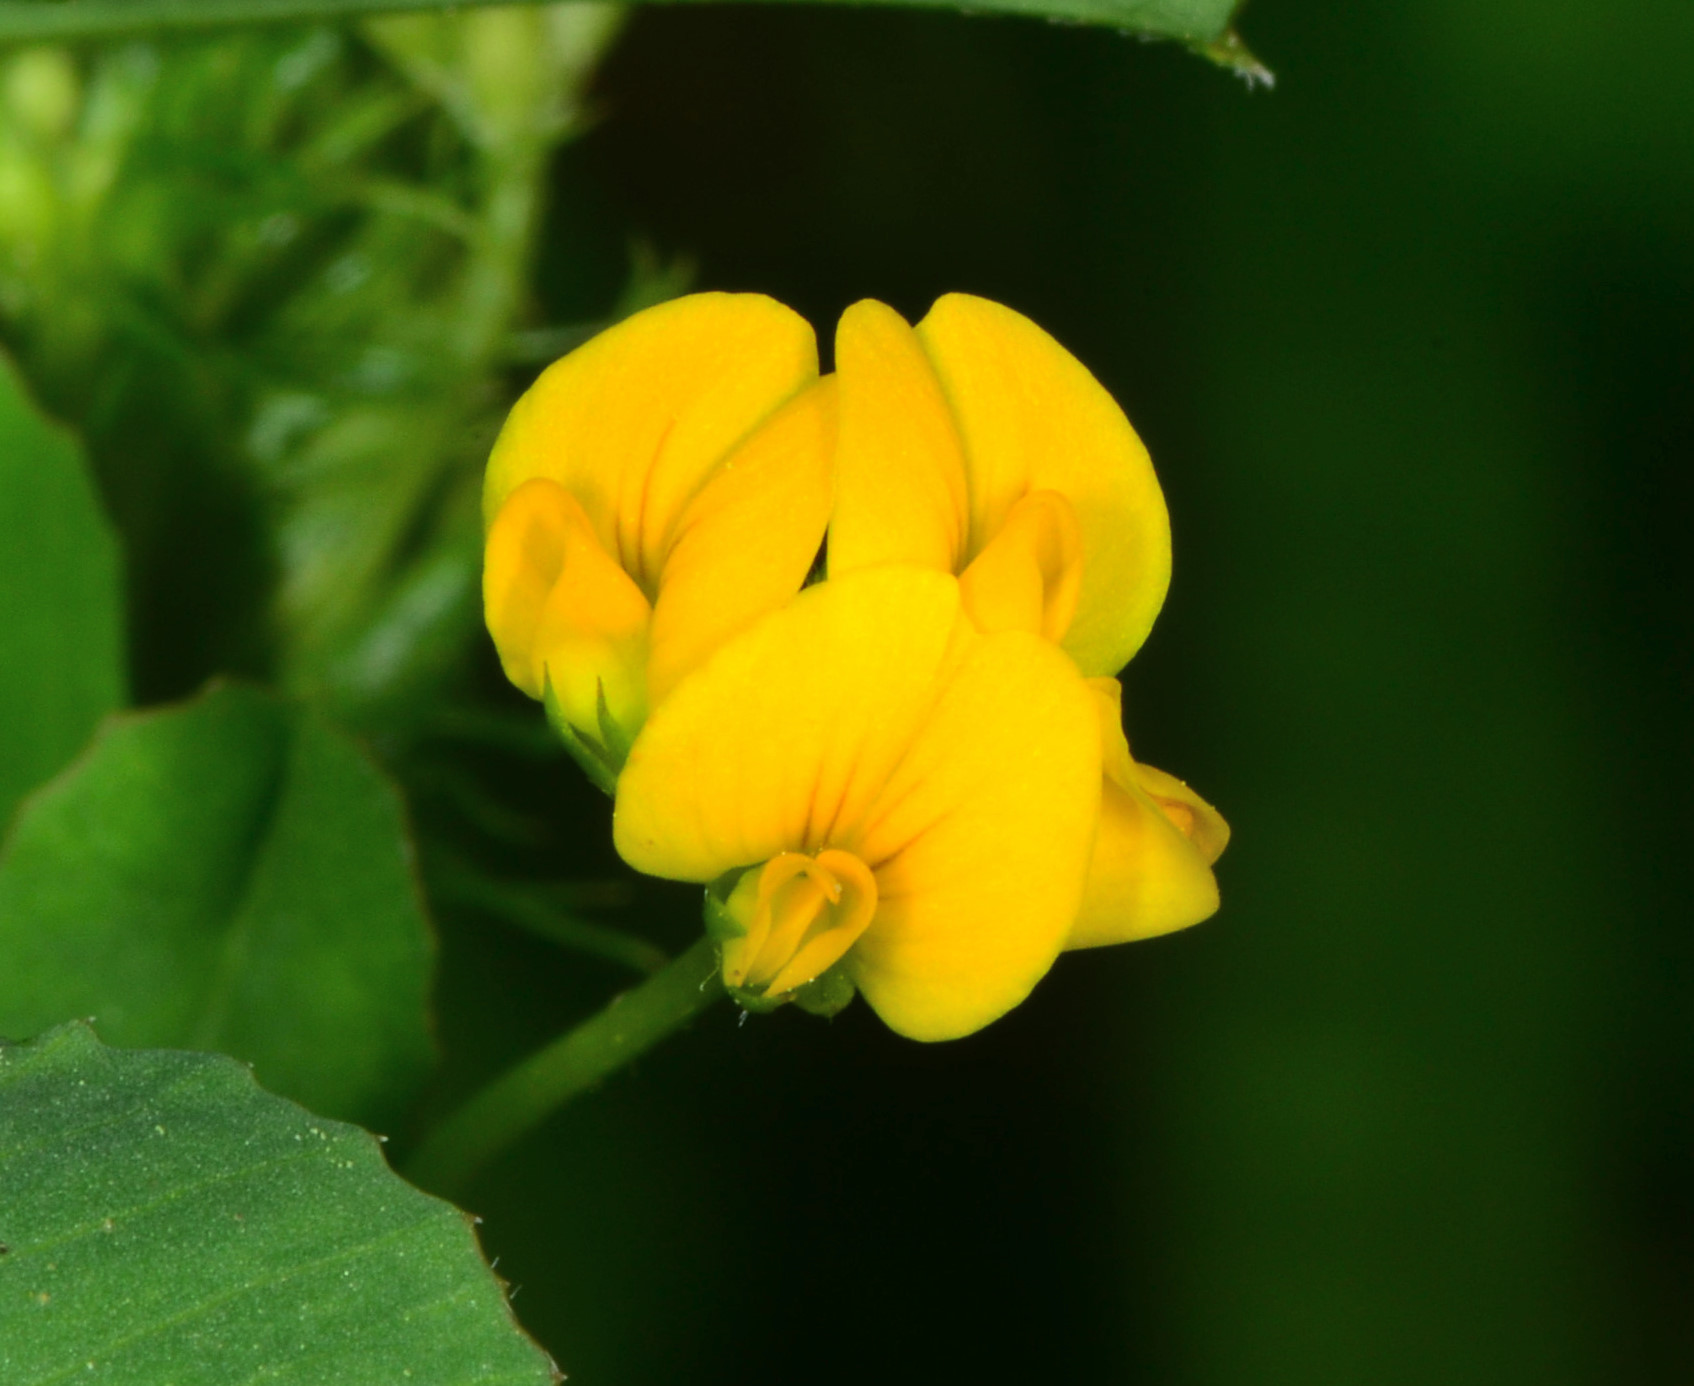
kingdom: Plantae
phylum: Tracheophyta
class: Magnoliopsida
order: Fabales
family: Fabaceae
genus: Medicago
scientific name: Medicago arabica
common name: Spotted medick
